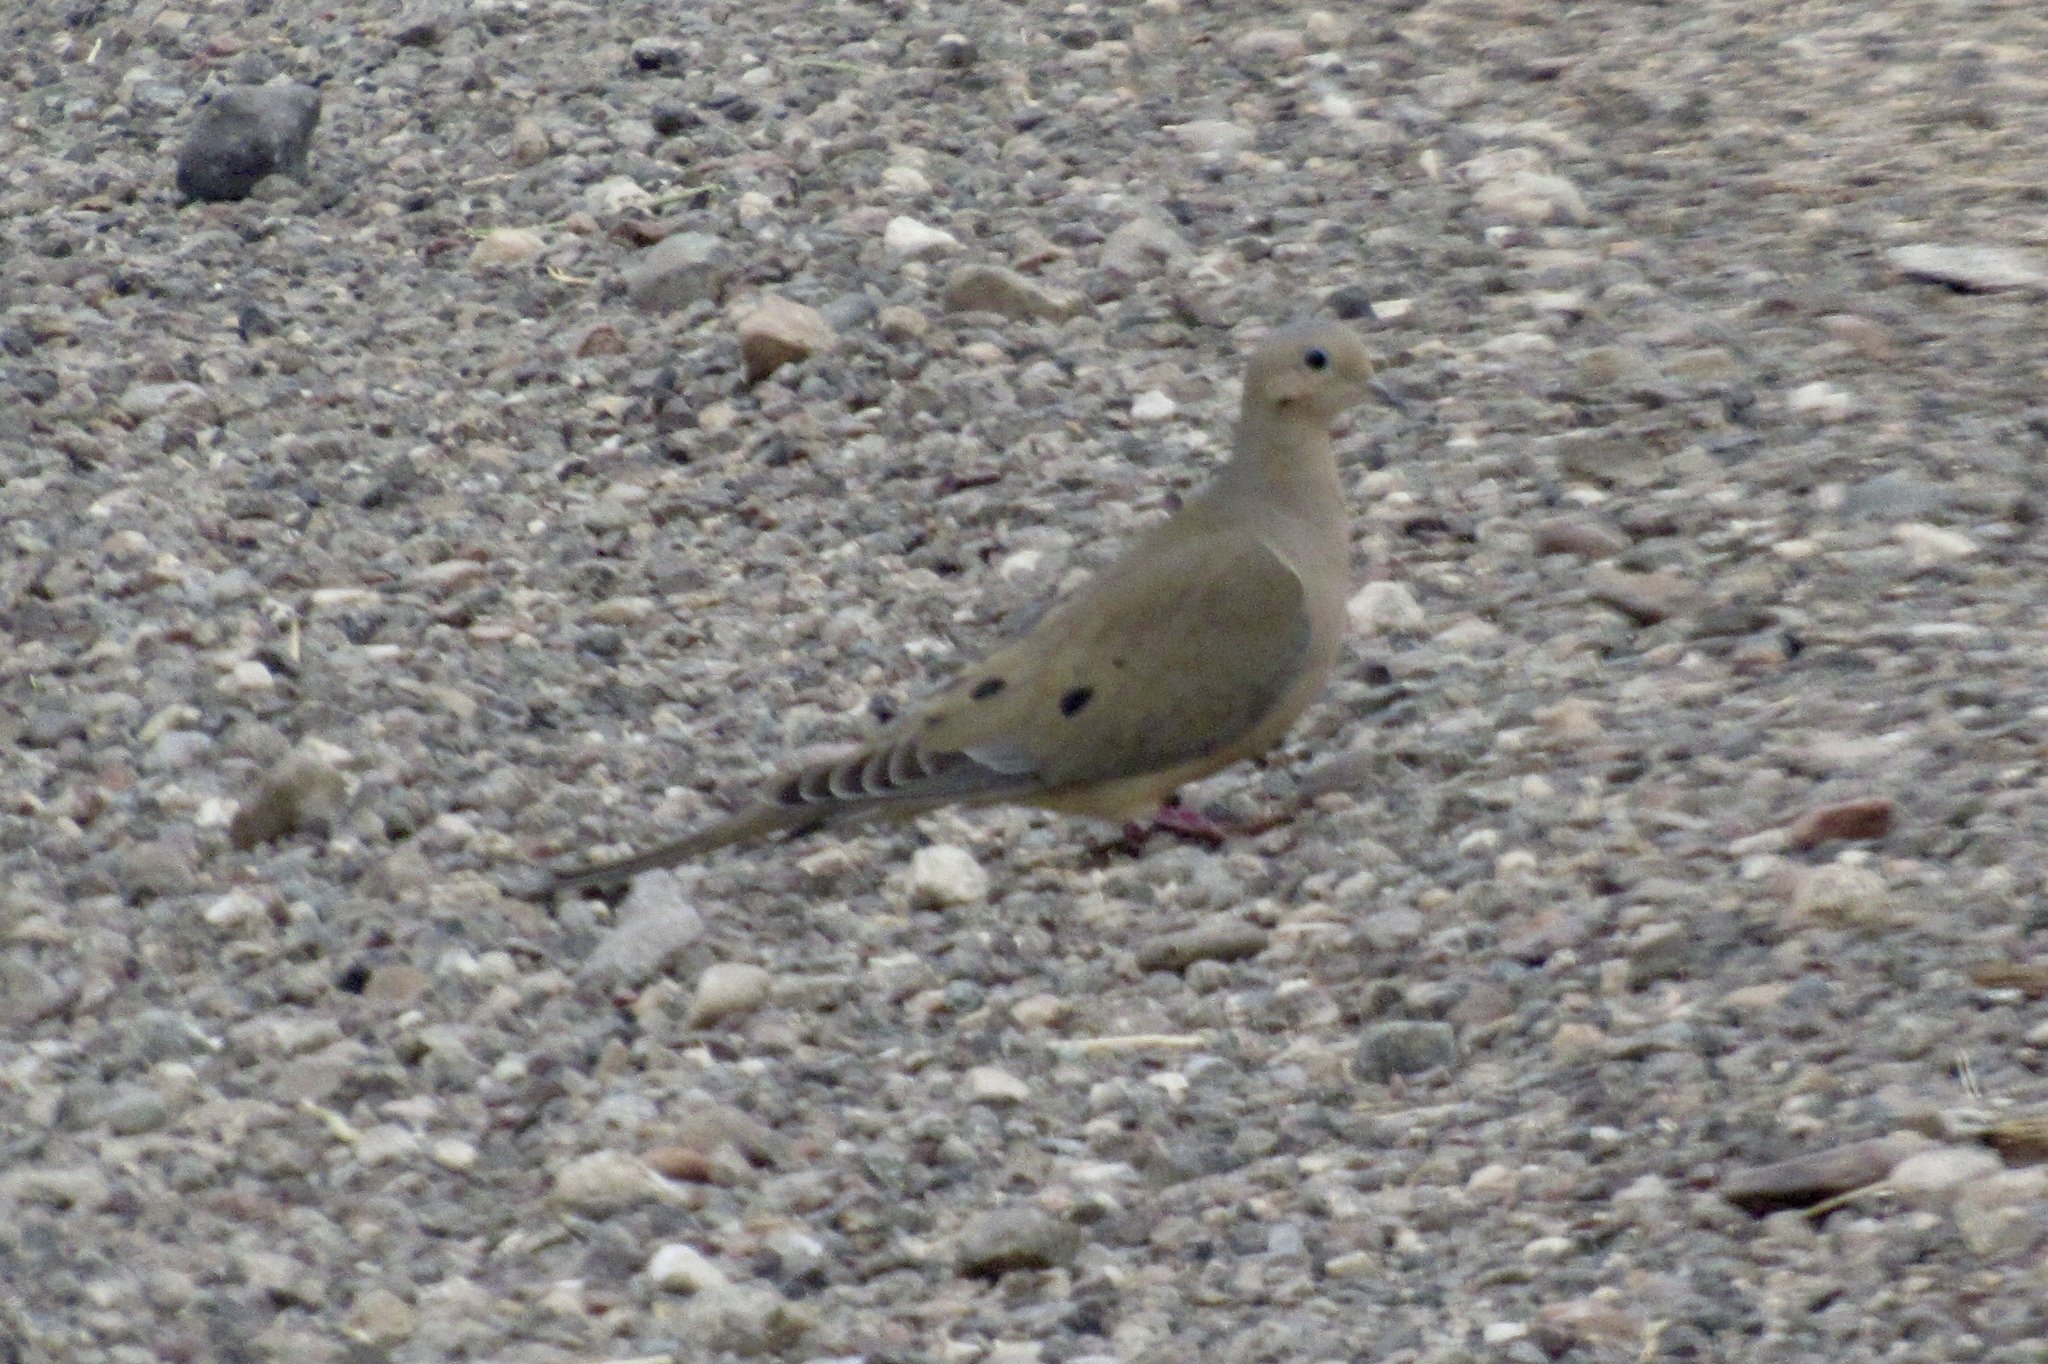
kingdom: Animalia
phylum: Chordata
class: Aves
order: Columbiformes
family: Columbidae
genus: Zenaida
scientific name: Zenaida macroura
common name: Mourning dove
